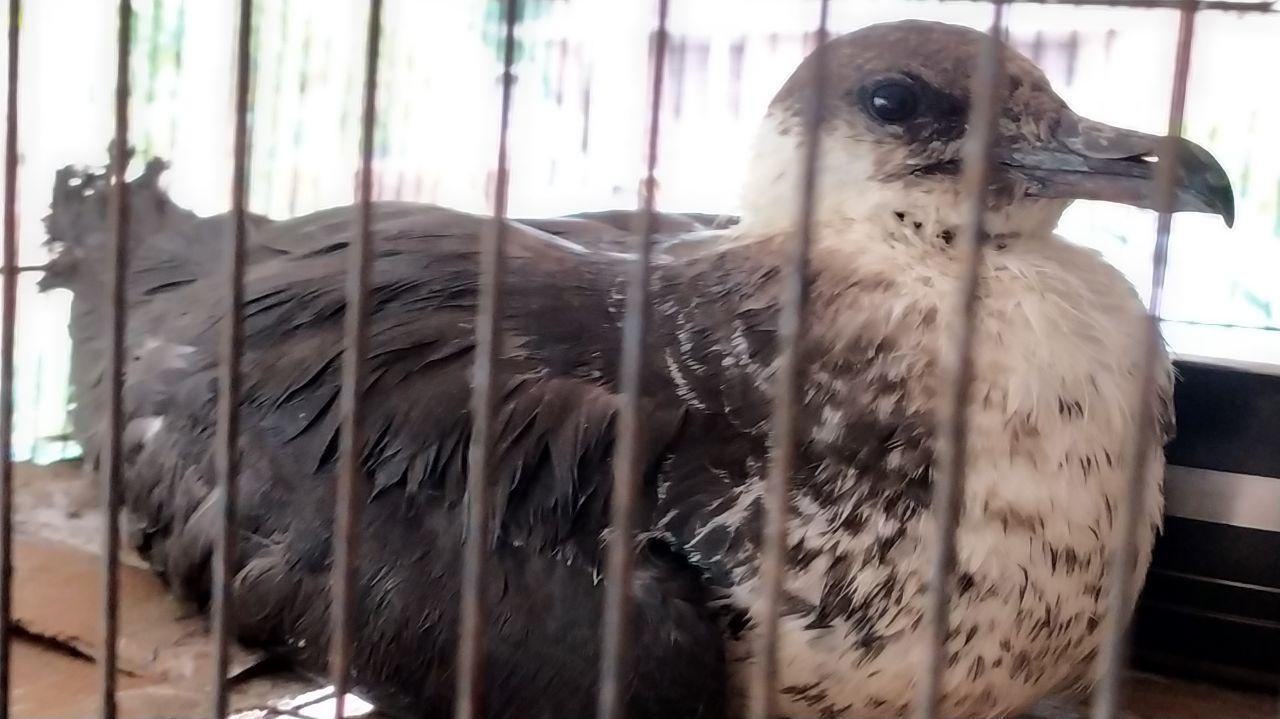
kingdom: Animalia
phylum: Chordata
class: Aves
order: Charadriiformes
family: Stercorariidae
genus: Stercorarius
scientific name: Stercorarius parasiticus
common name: Parasitic jaeger
